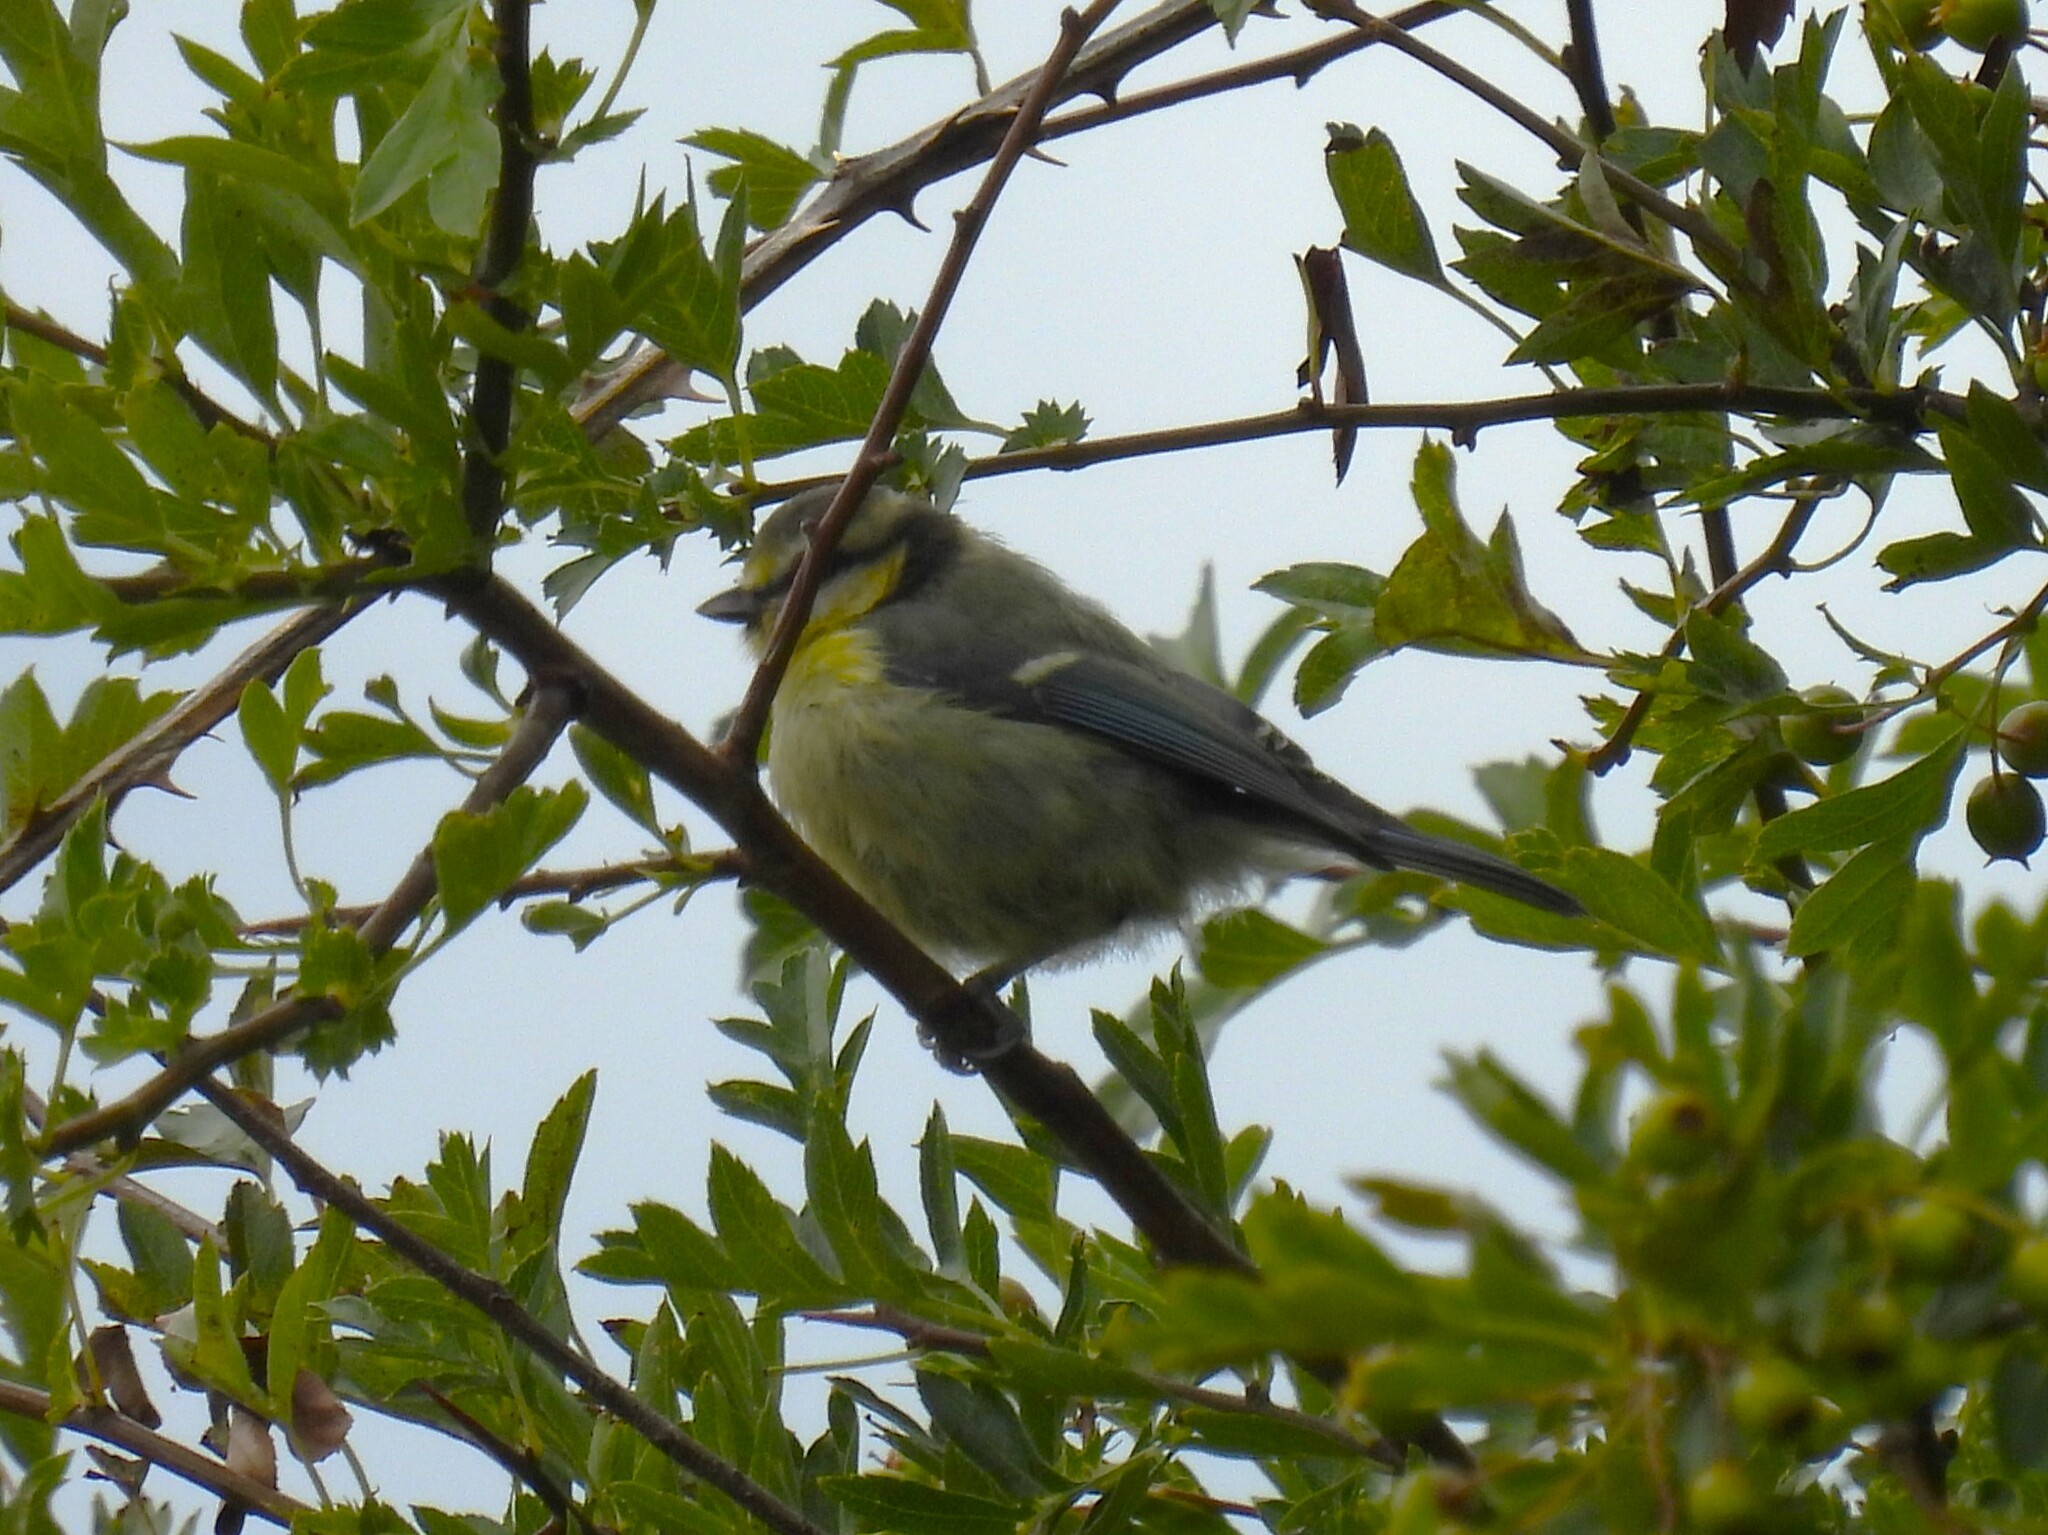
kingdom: Animalia
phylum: Chordata
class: Aves
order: Passeriformes
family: Paridae
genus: Cyanistes
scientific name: Cyanistes caeruleus
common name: Eurasian blue tit
